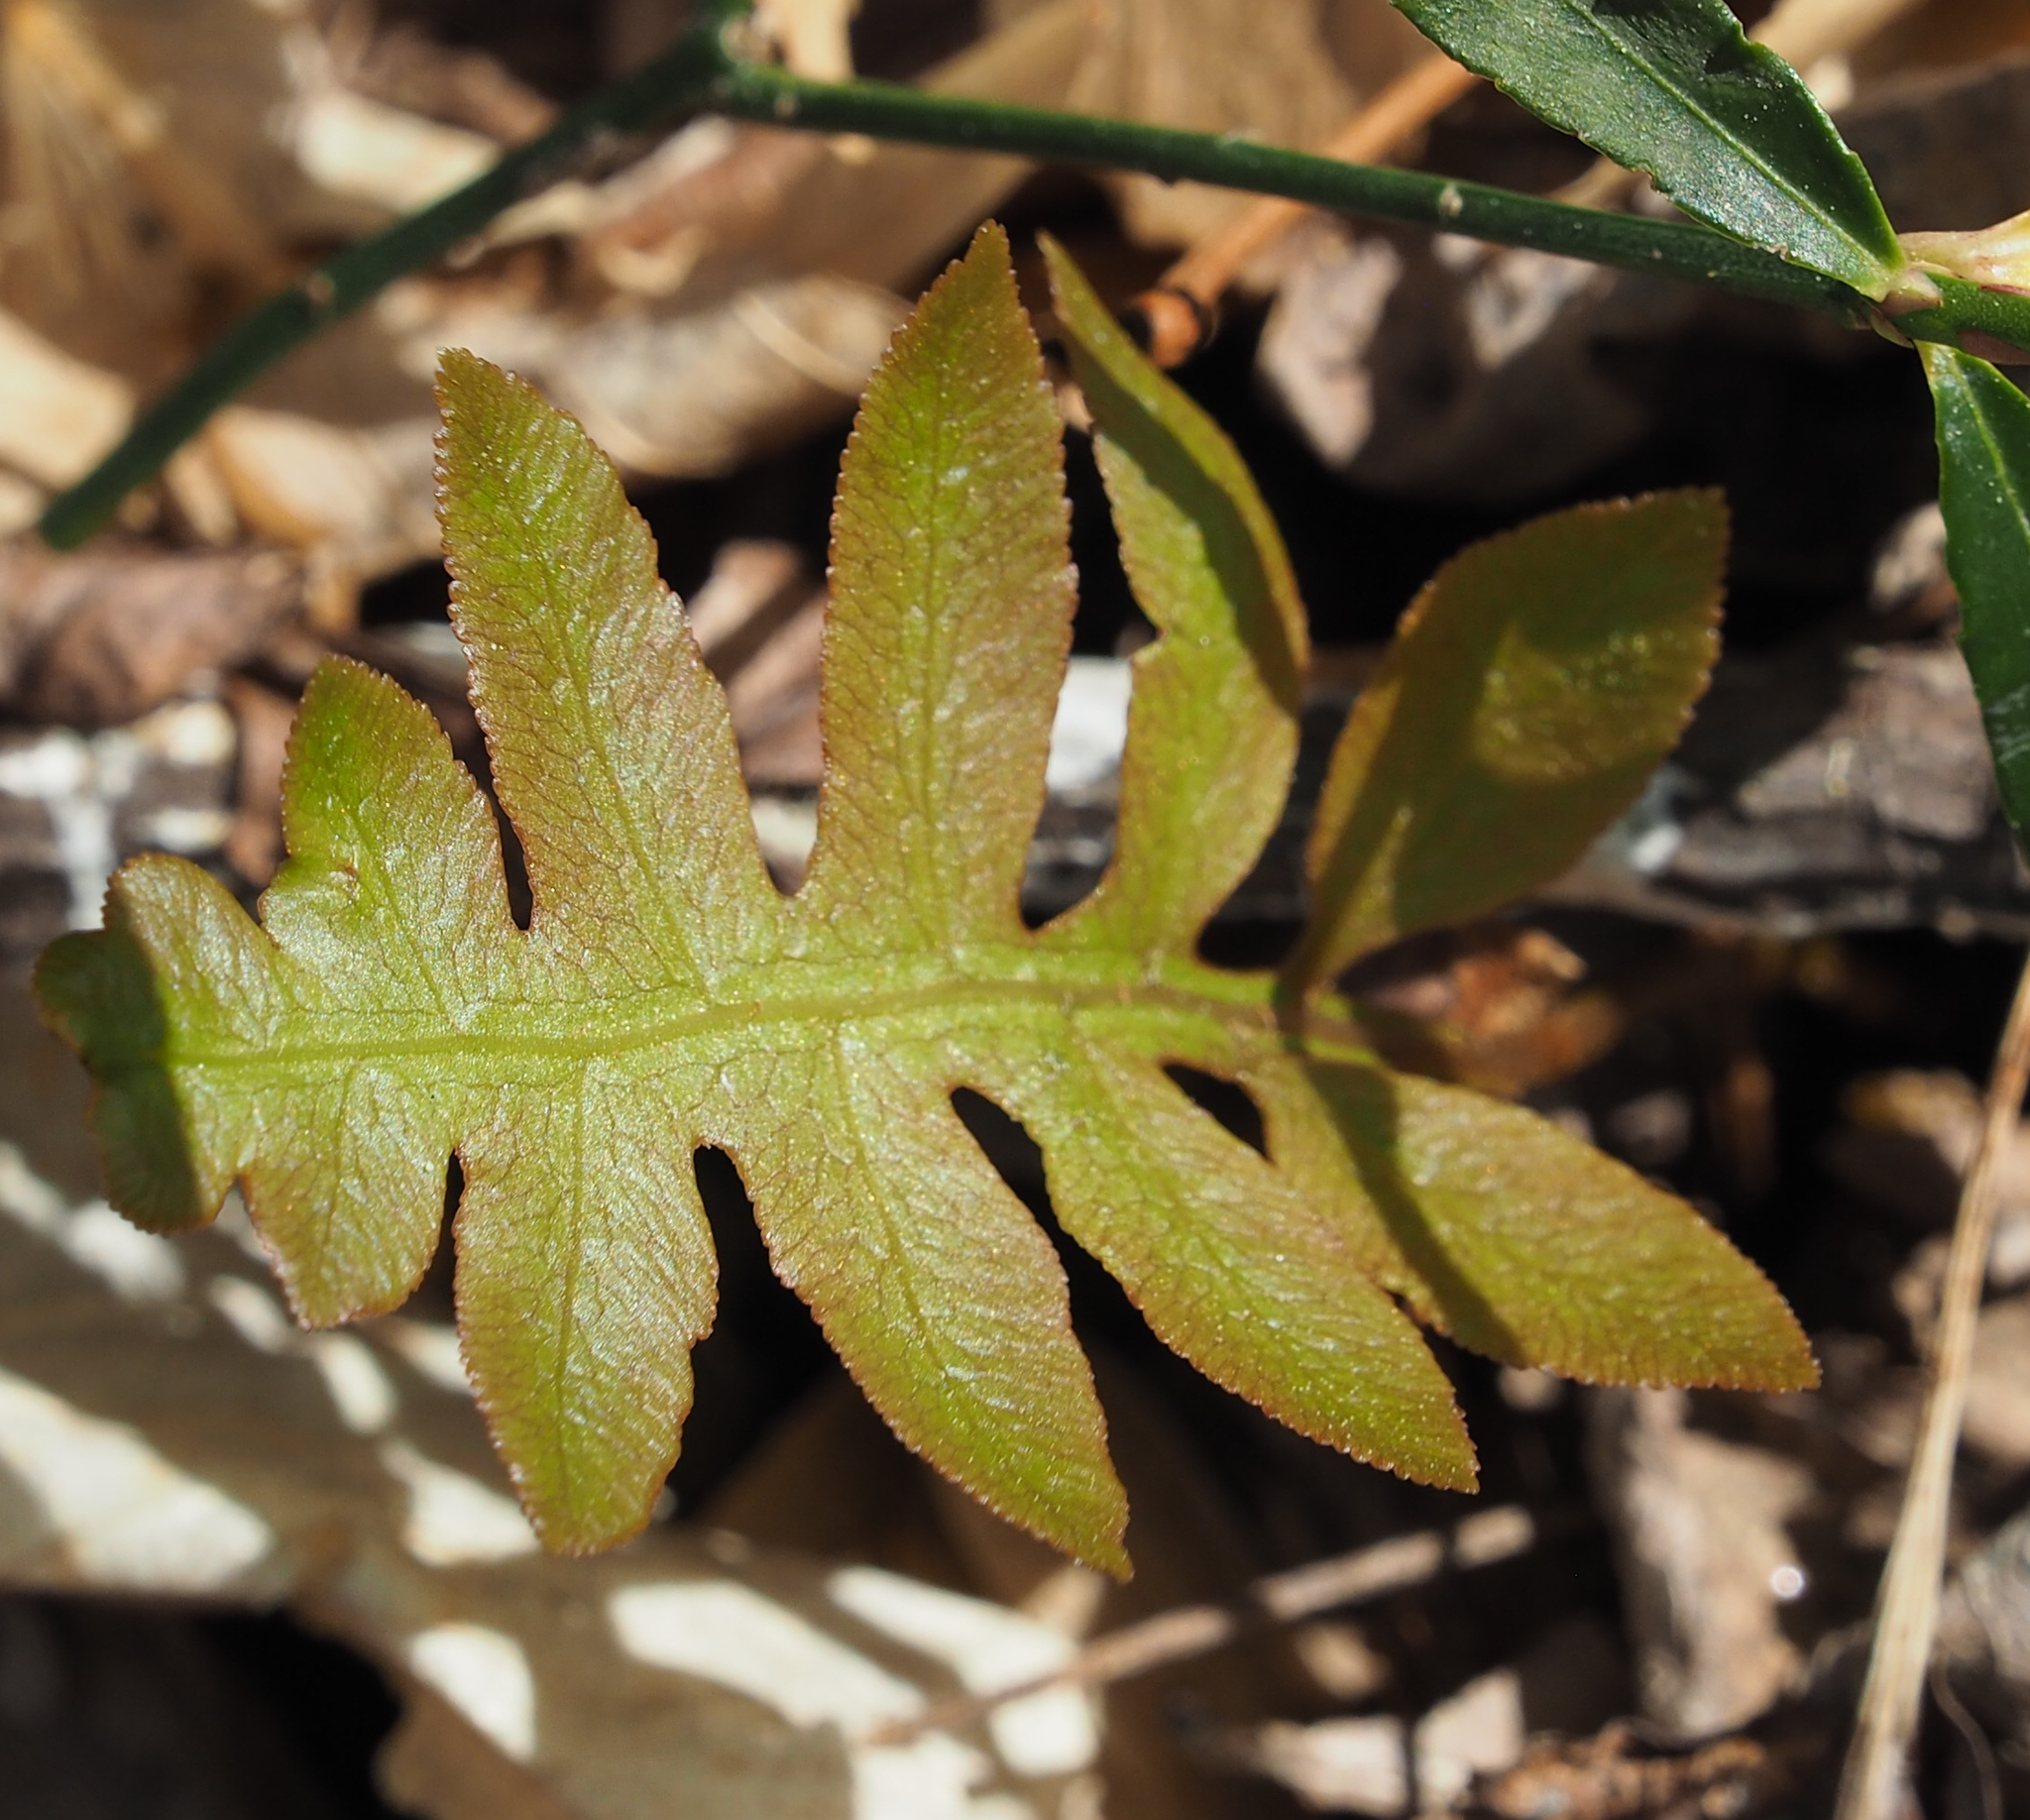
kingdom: Plantae
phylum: Tracheophyta
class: Polypodiopsida
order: Polypodiales
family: Blechnaceae
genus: Lorinseria
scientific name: Lorinseria areolata
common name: Dwarf chain fern
